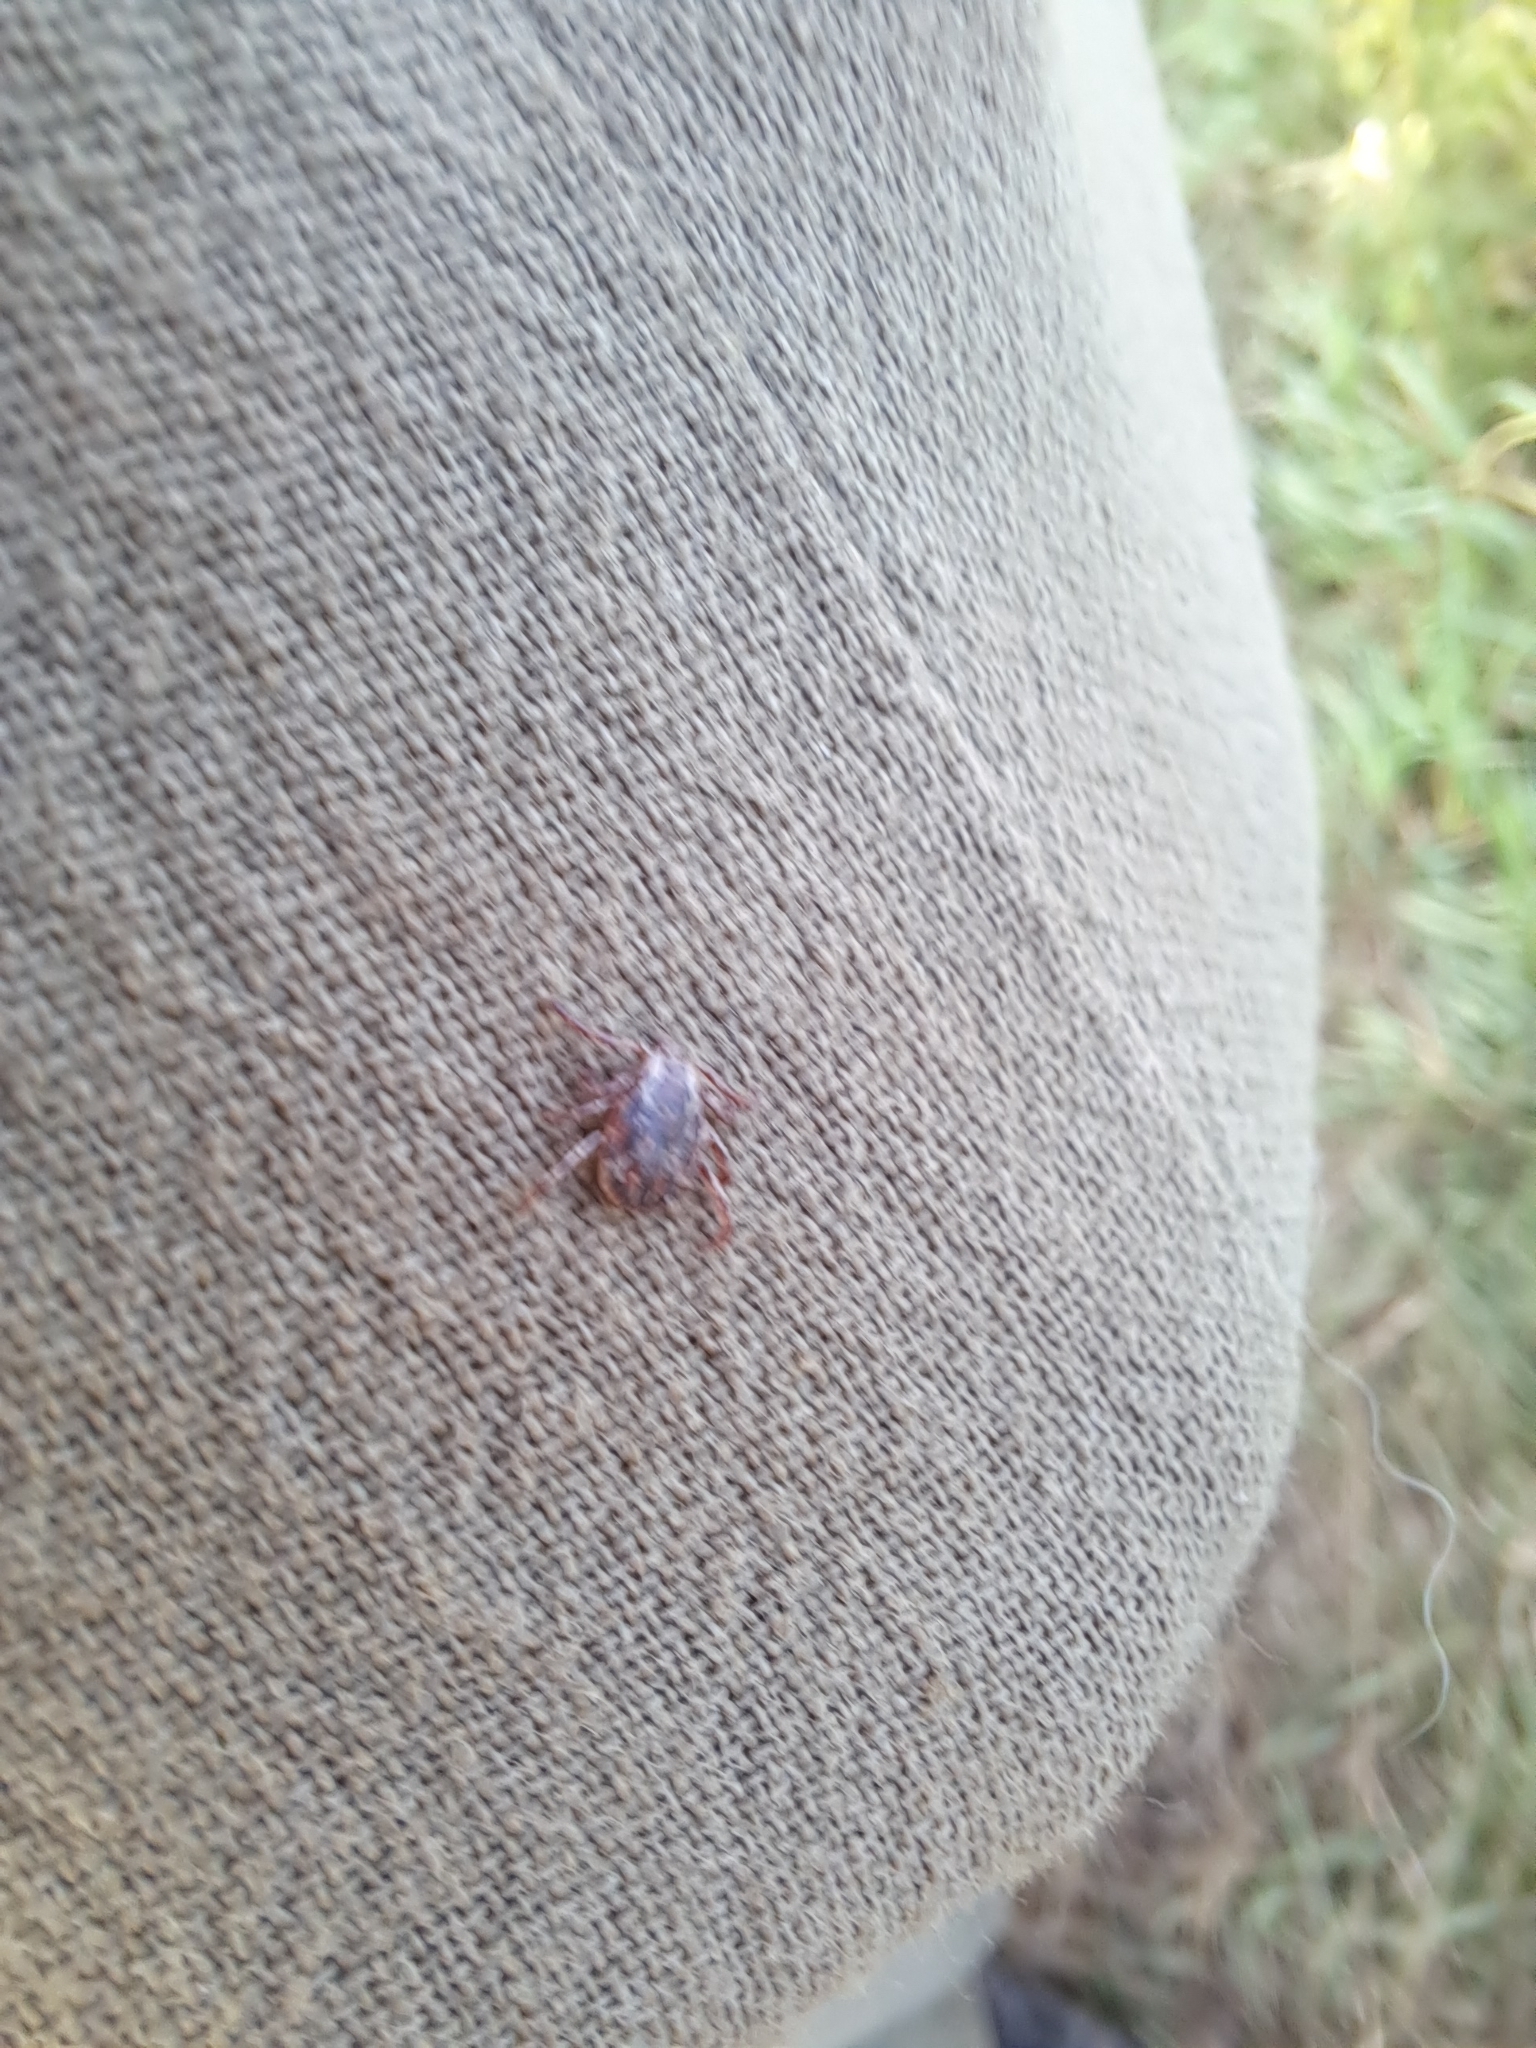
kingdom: Animalia
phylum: Arthropoda
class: Arachnida
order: Ixodida
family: Ixodidae
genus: Dermacentor
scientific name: Dermacentor variabilis
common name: American dog tick
